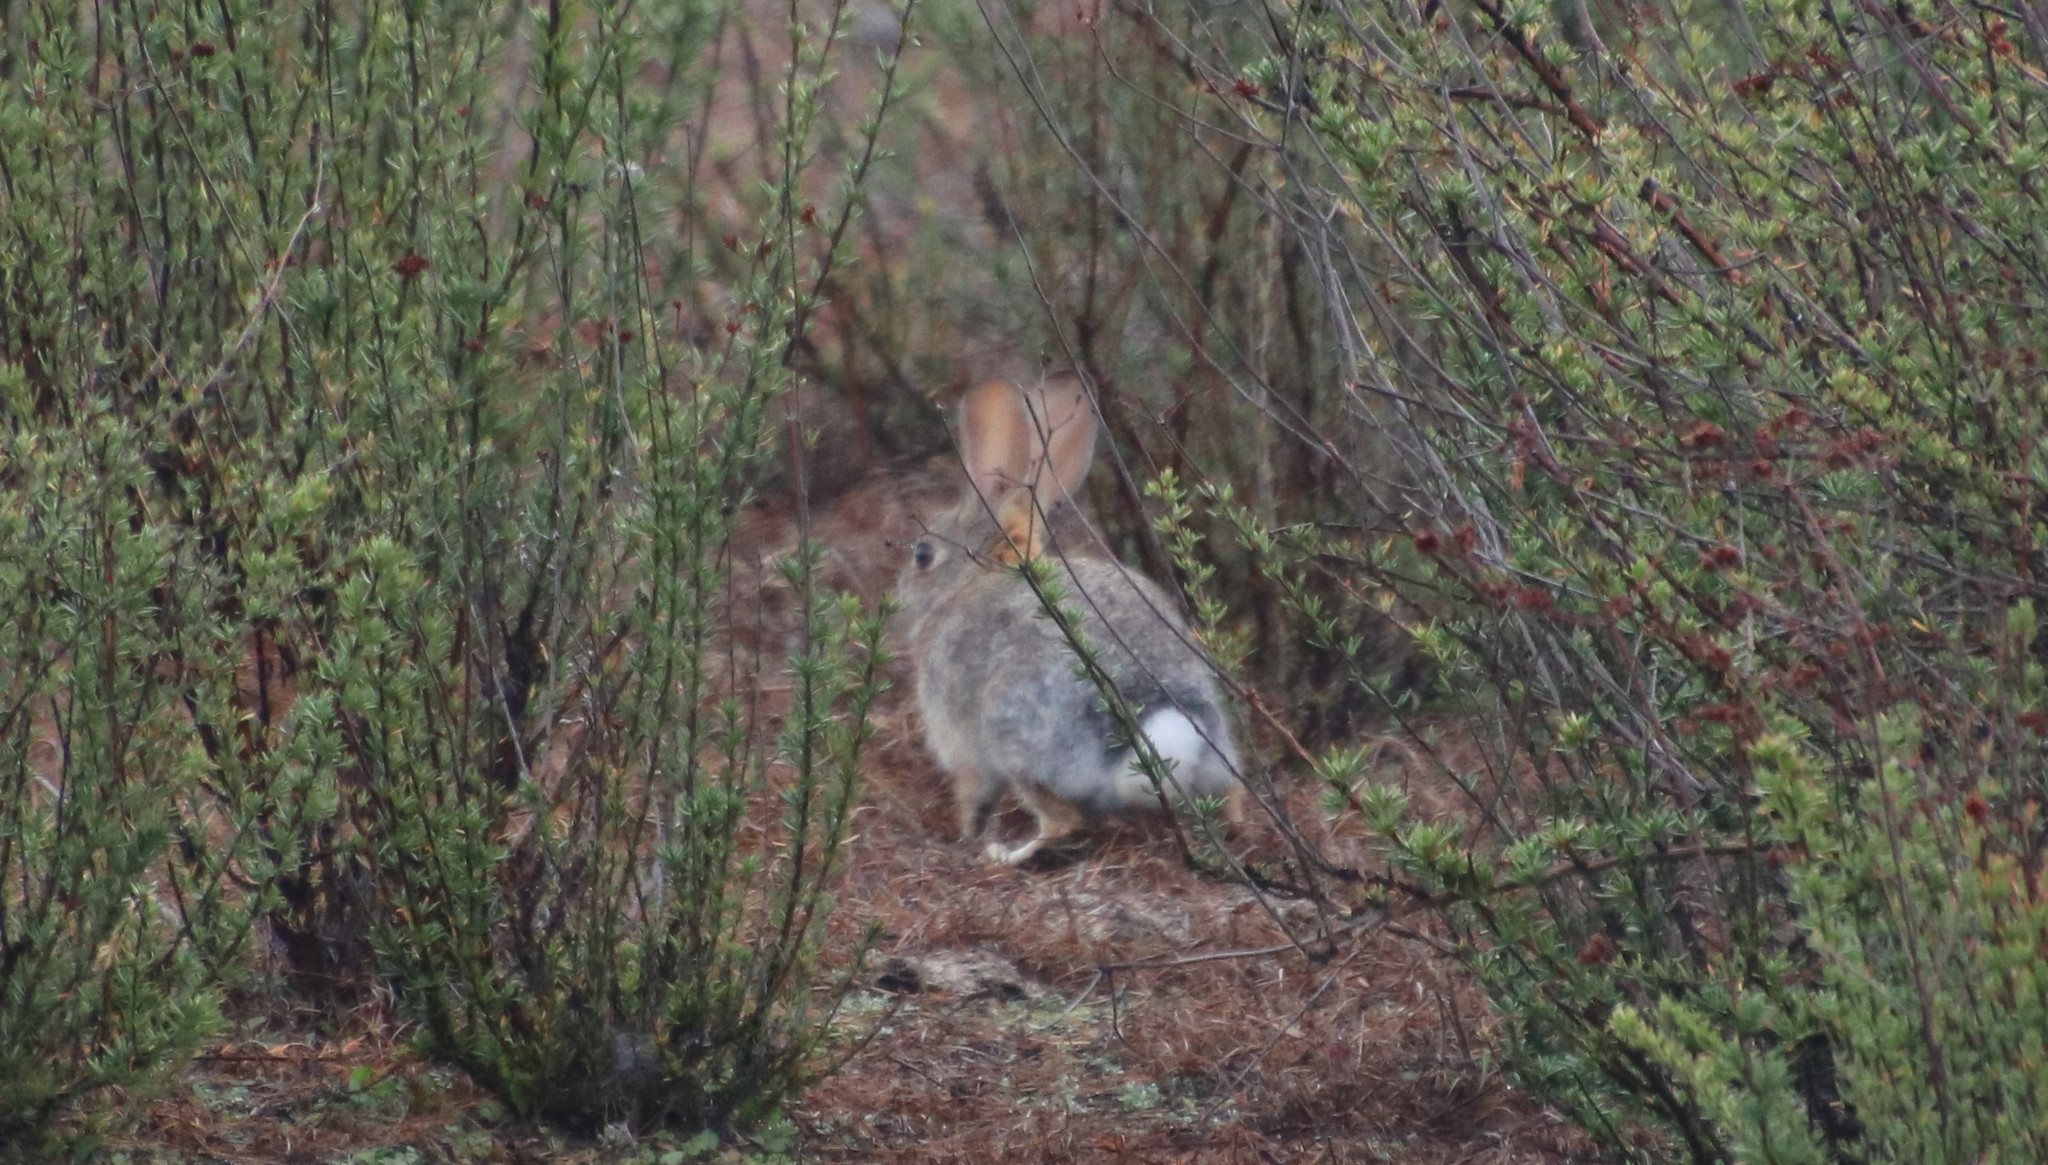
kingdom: Animalia
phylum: Chordata
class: Mammalia
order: Lagomorpha
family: Leporidae
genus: Sylvilagus
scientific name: Sylvilagus audubonii
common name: Desert cottontail
